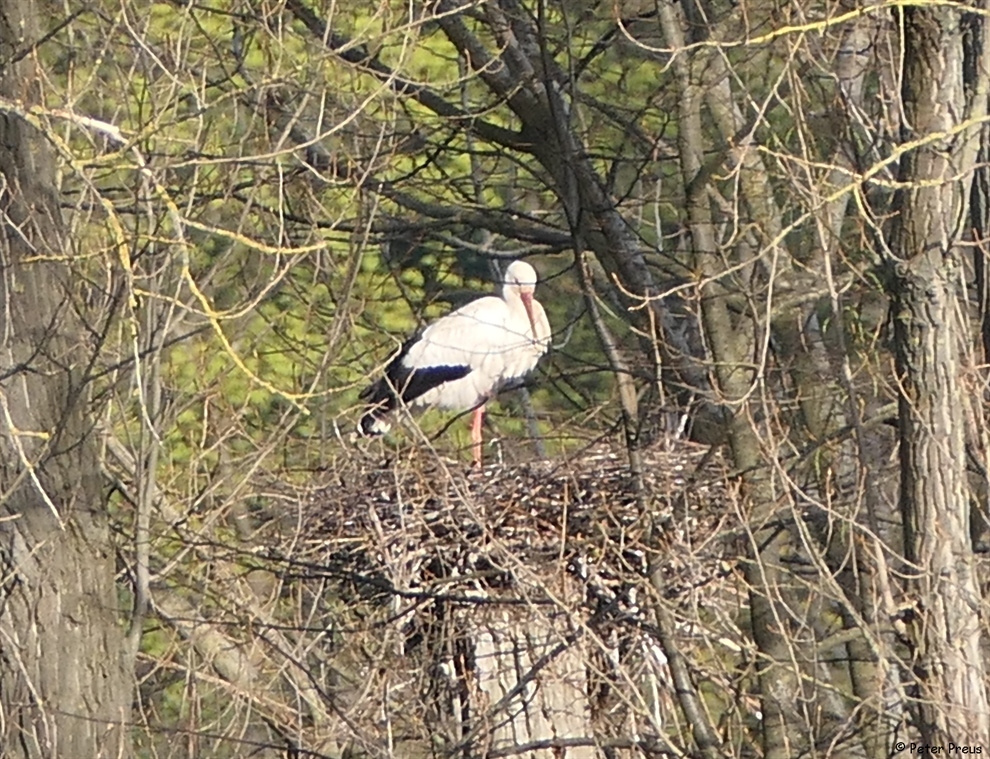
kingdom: Animalia
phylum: Chordata
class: Aves
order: Ciconiiformes
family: Ciconiidae
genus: Ciconia
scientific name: Ciconia ciconia
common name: White stork
